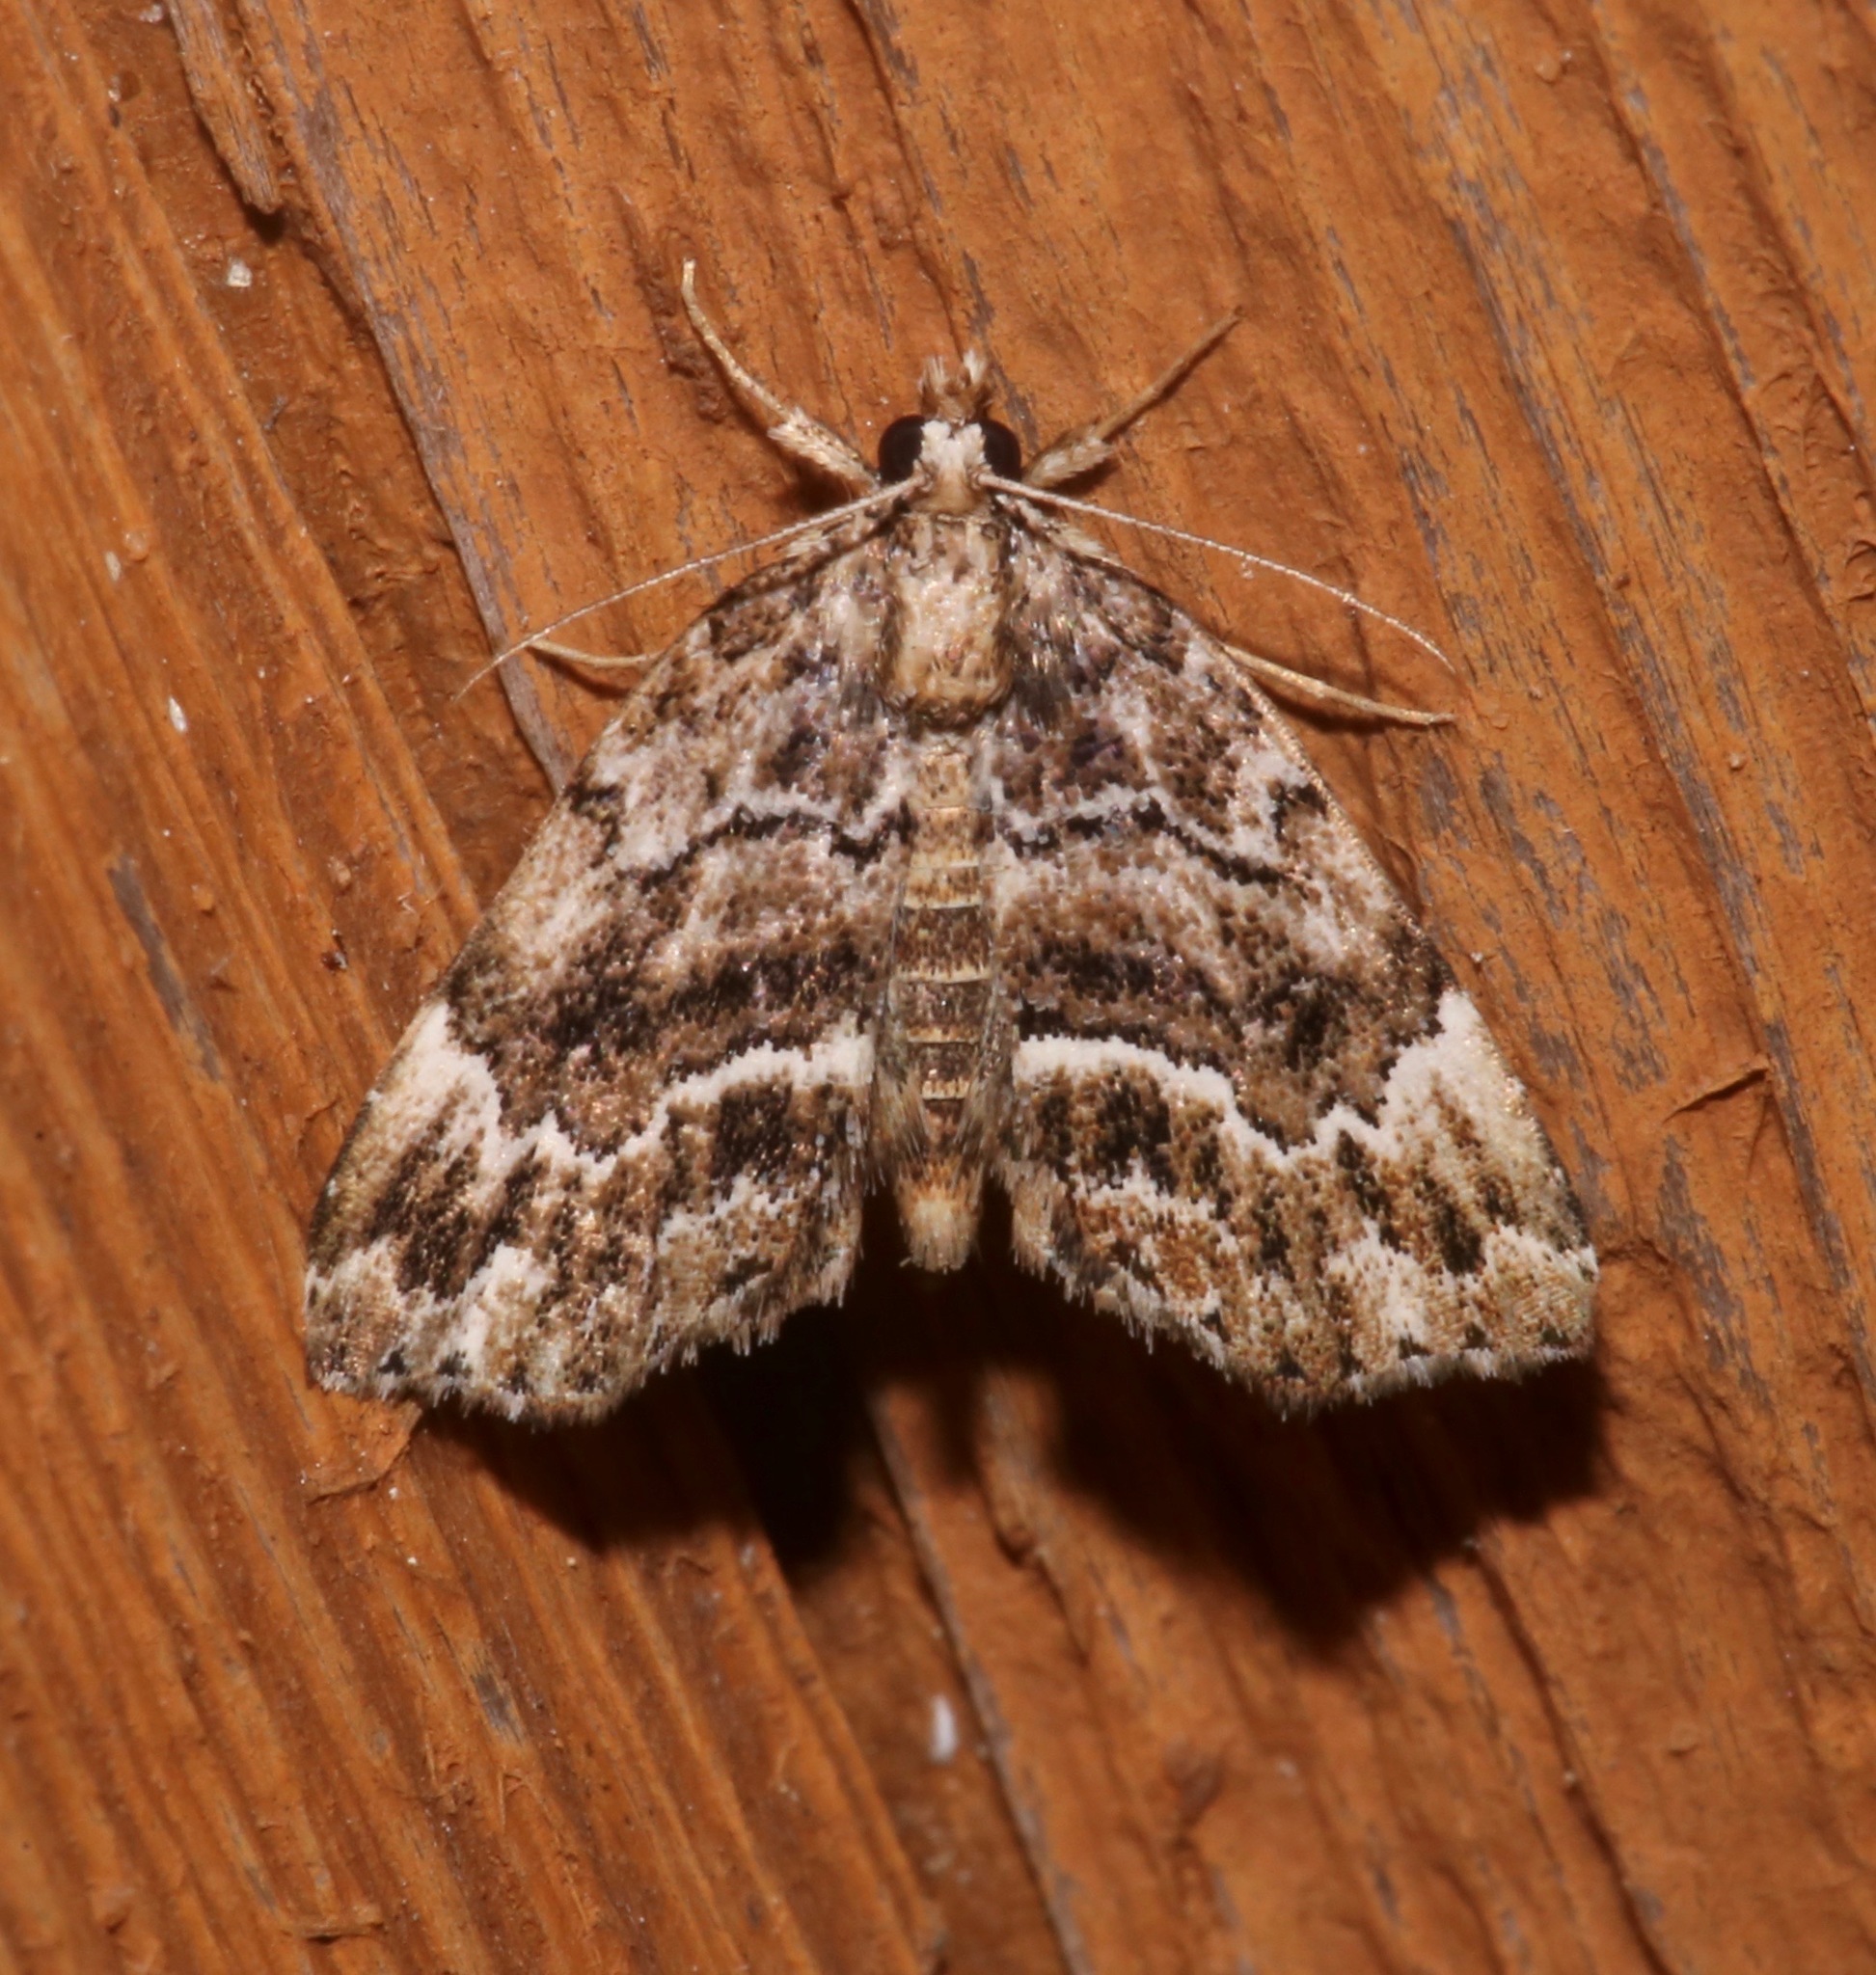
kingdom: Animalia
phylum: Arthropoda
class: Insecta
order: Lepidoptera
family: Erebidae
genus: Cutina
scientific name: Cutina arcuata
